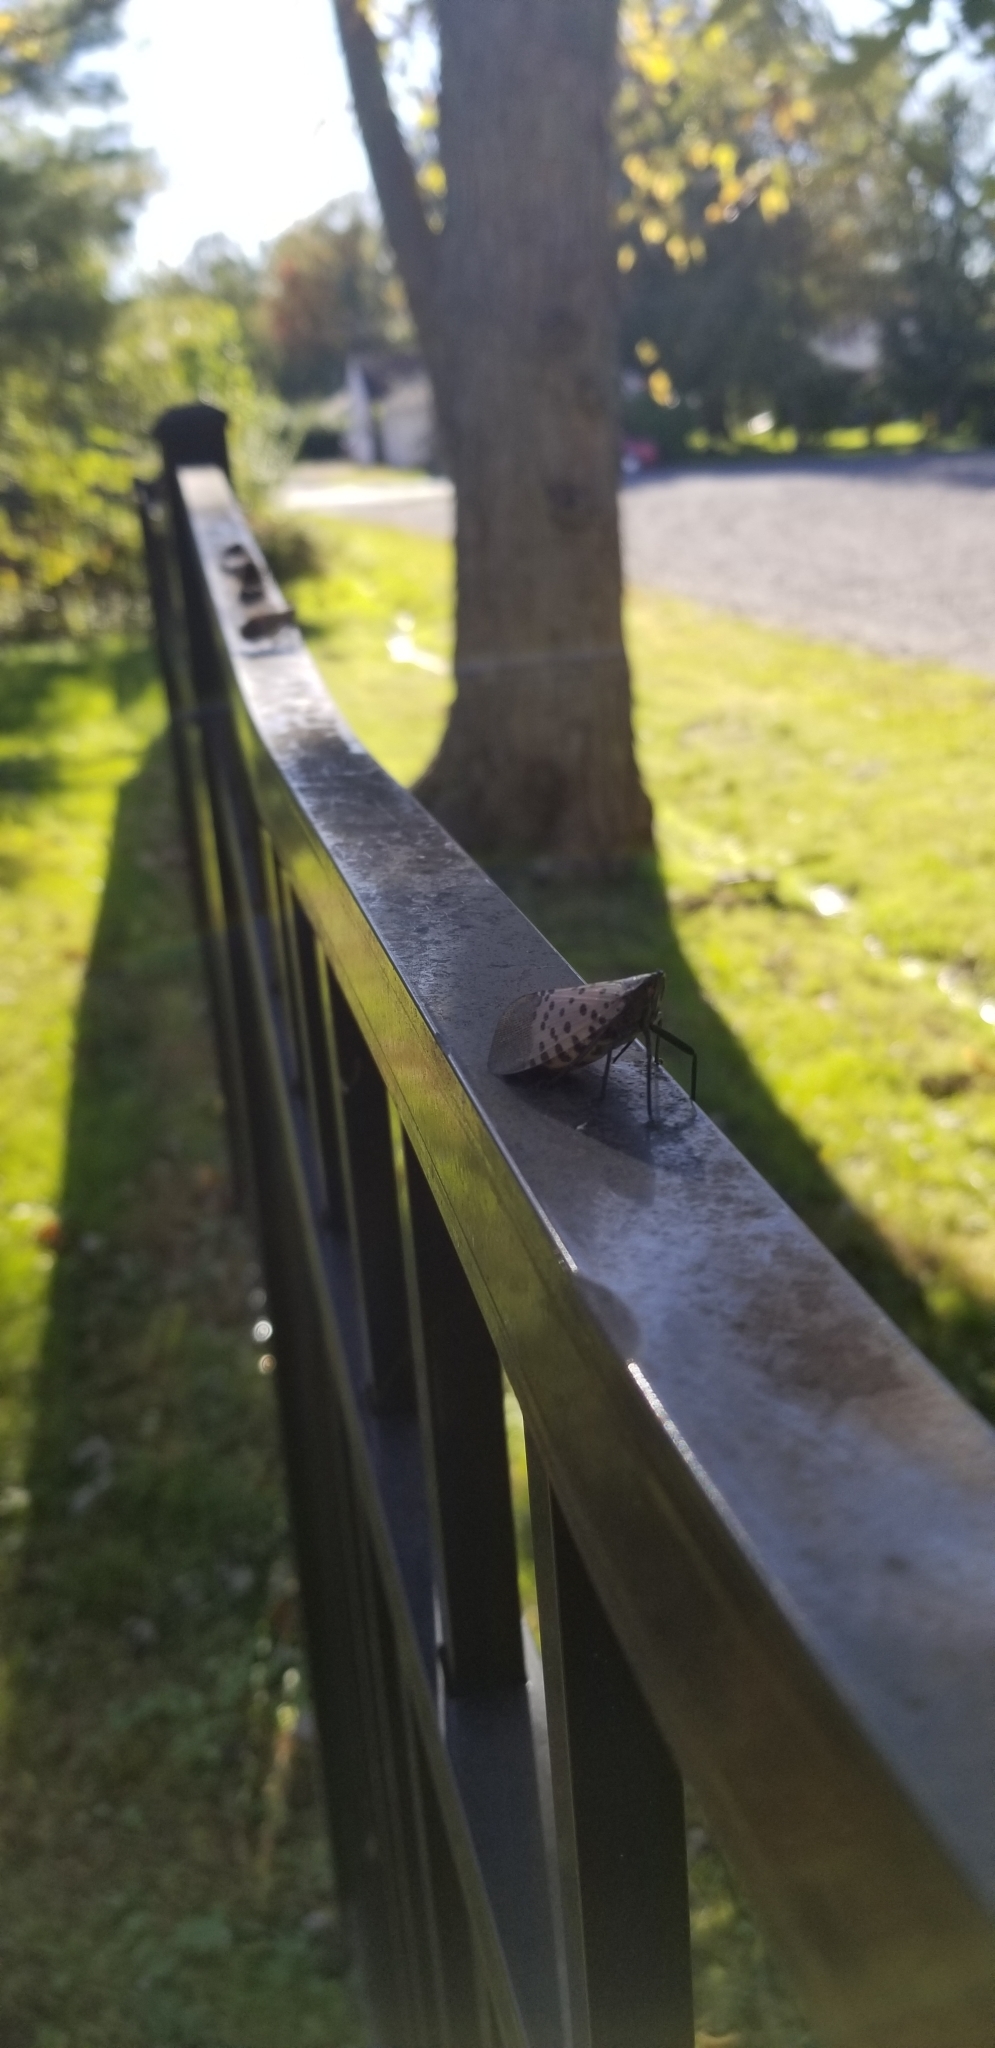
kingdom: Animalia
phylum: Arthropoda
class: Insecta
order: Hemiptera
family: Fulgoridae
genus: Lycorma
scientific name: Lycorma delicatula
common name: Spotted lanternfly
